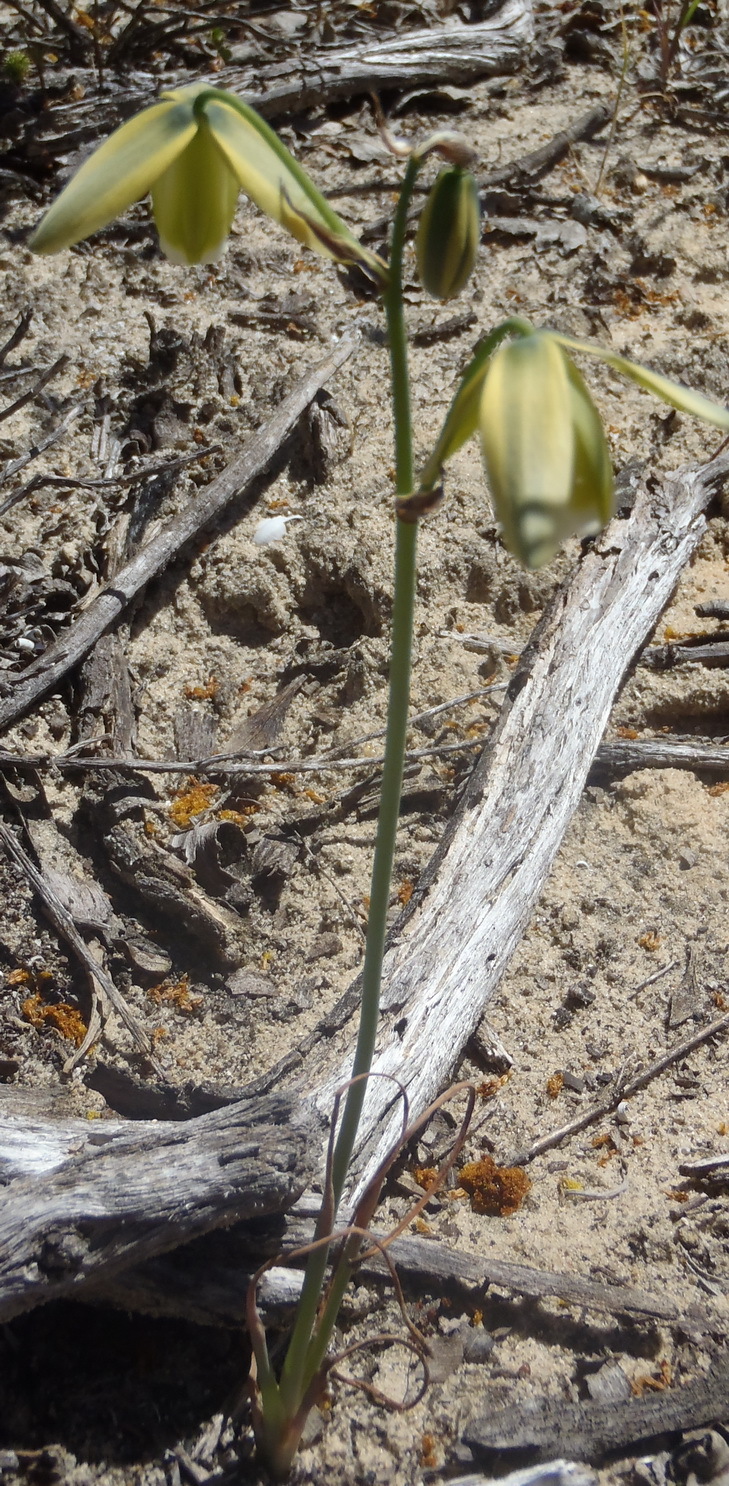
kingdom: Plantae
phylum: Tracheophyta
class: Liliopsida
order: Asparagales
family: Asparagaceae
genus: Albuca
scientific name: Albuca cooperi
